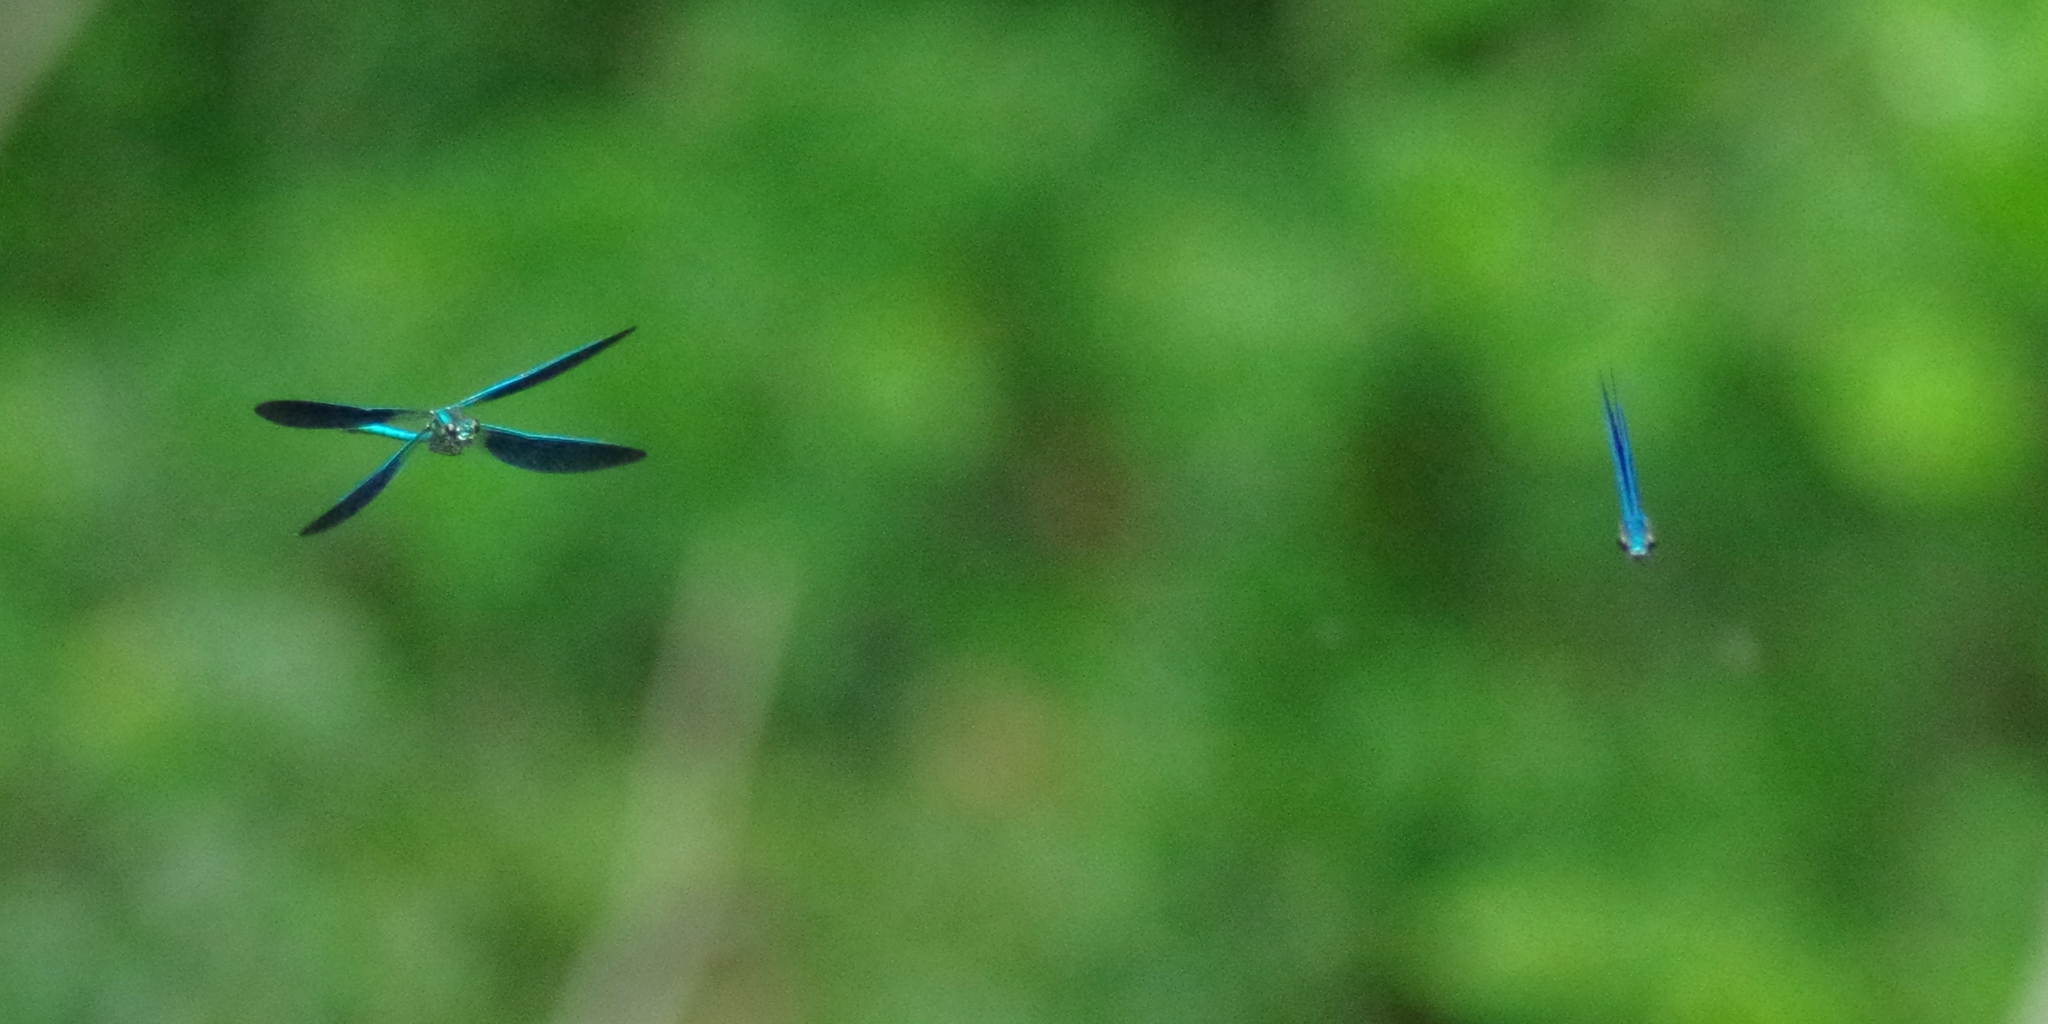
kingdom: Animalia
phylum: Arthropoda
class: Insecta
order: Odonata
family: Calopterygidae
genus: Calopteryx
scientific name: Calopteryx virgo
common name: Beautiful demoiselle
